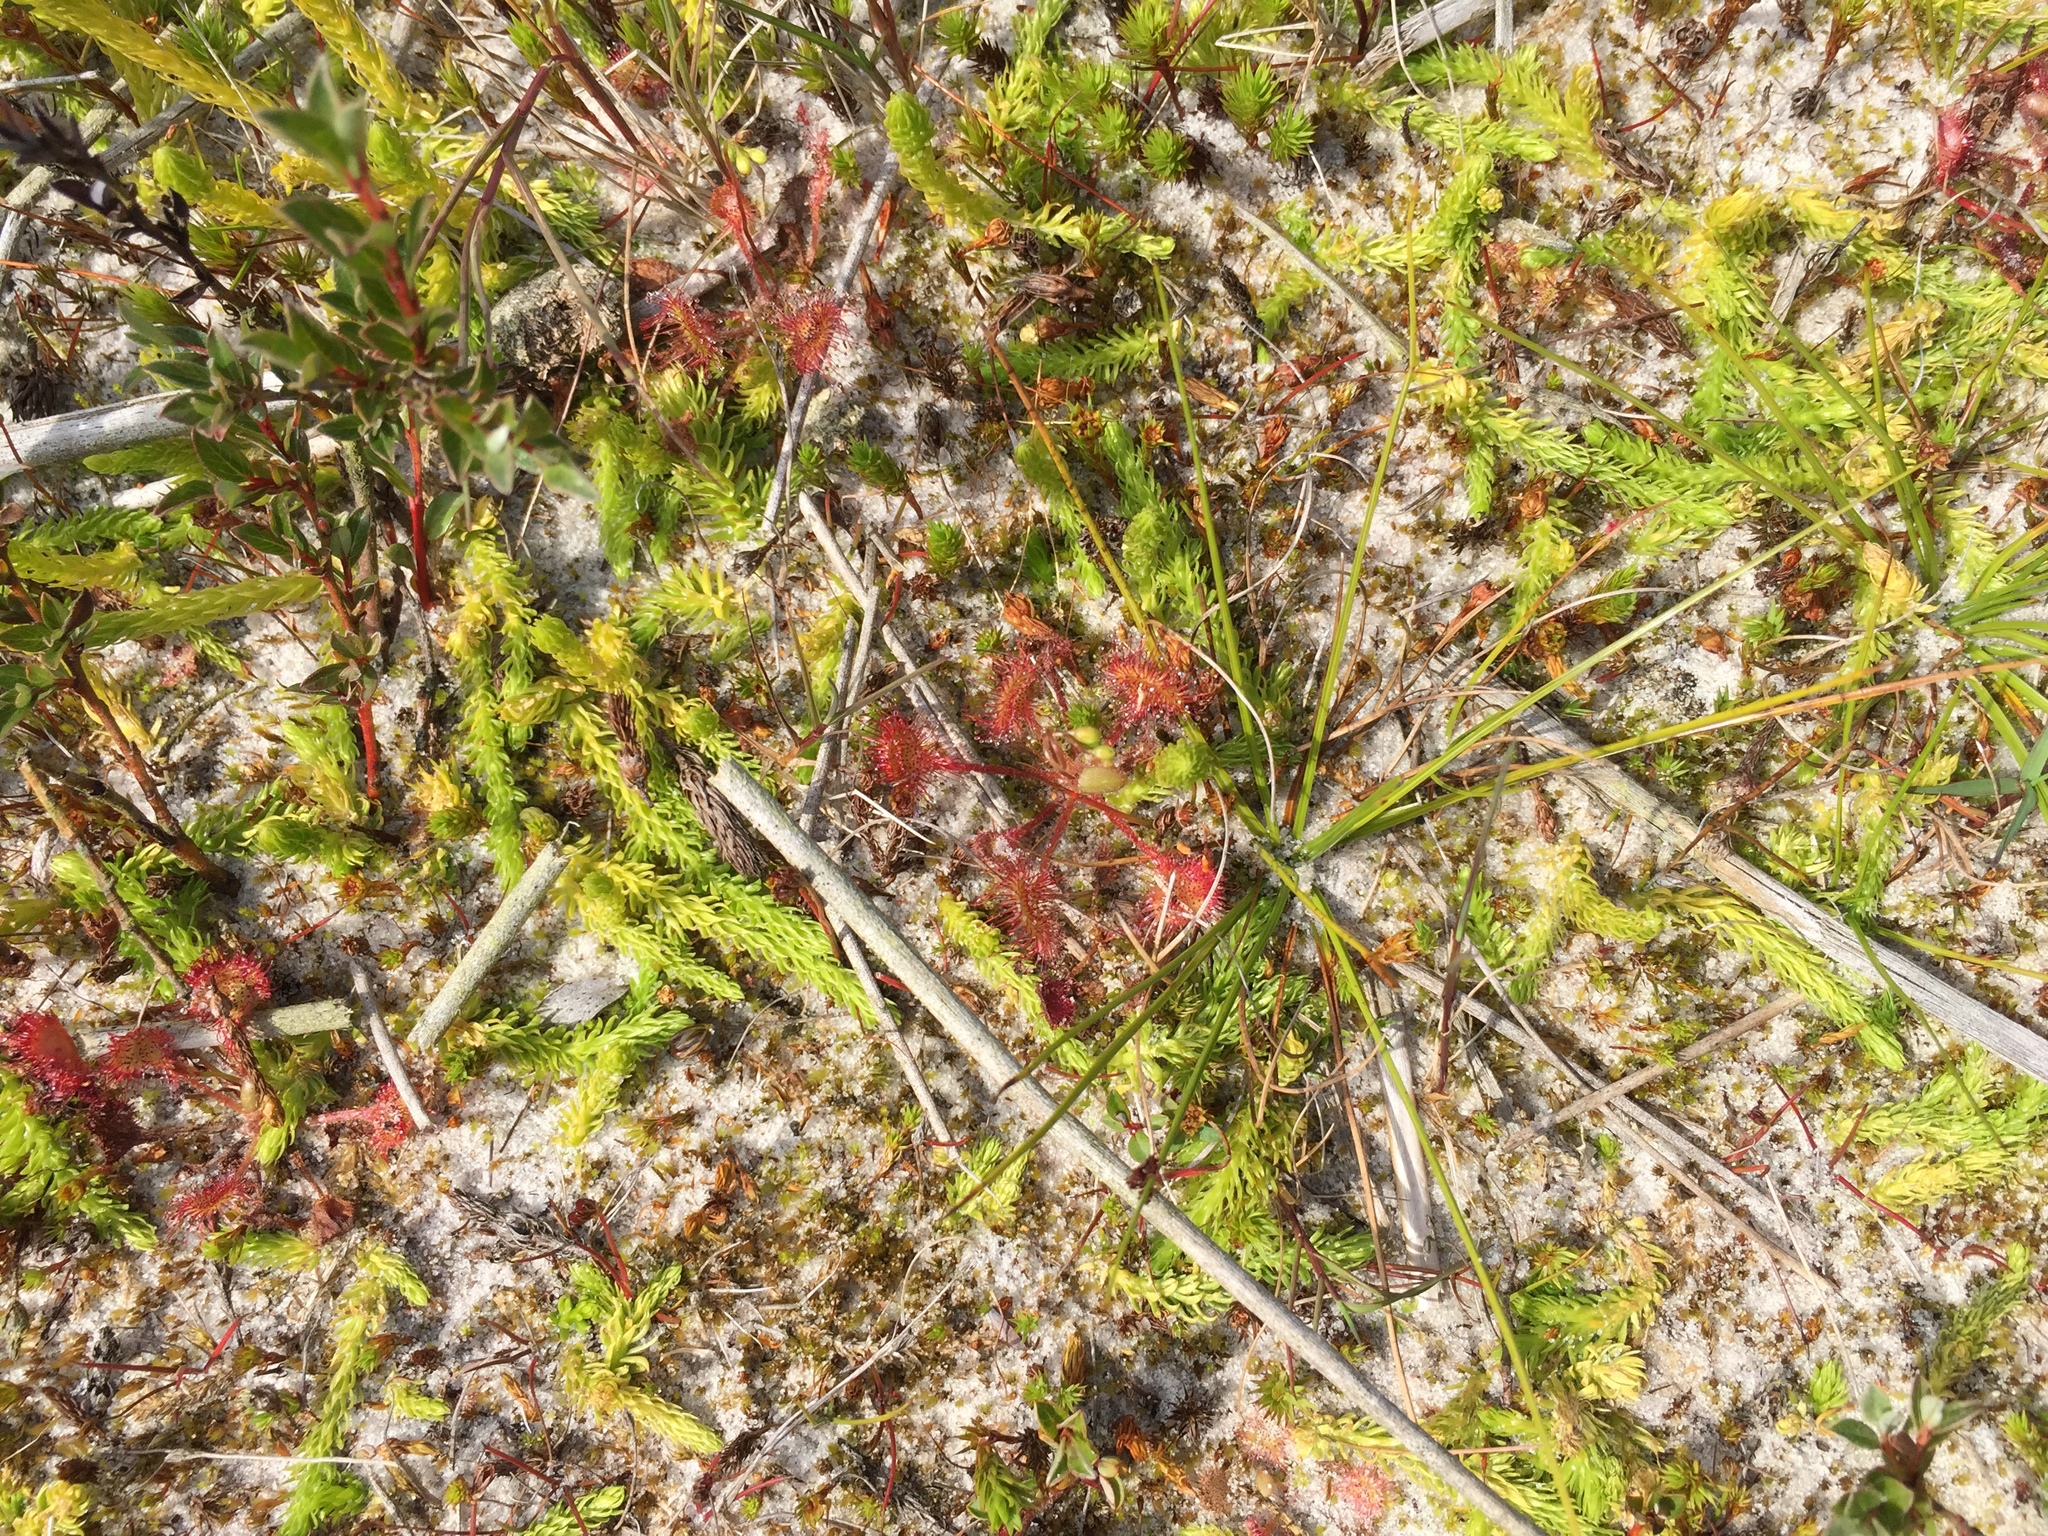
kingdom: Plantae
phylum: Tracheophyta
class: Lycopodiopsida
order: Lycopodiales
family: Lycopodiaceae
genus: Lycopodiella
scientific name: Lycopodiella inundata
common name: Marsh clubmoss
